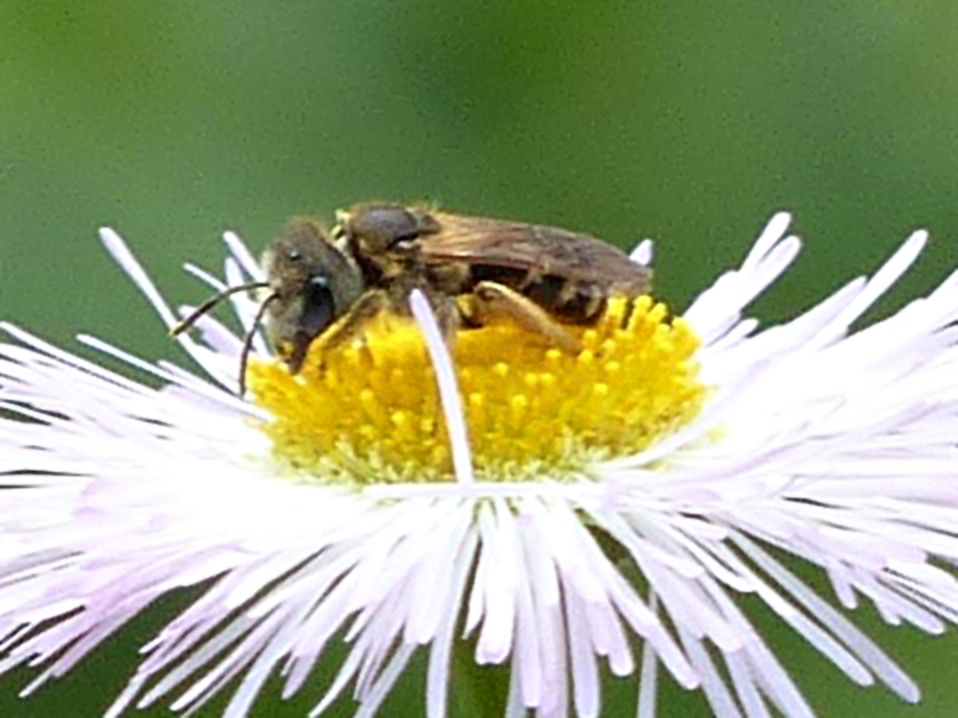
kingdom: Animalia
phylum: Arthropoda
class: Insecta
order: Hymenoptera
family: Halictidae
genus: Halictus
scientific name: Halictus ligatus
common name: Ligated furrow bee
